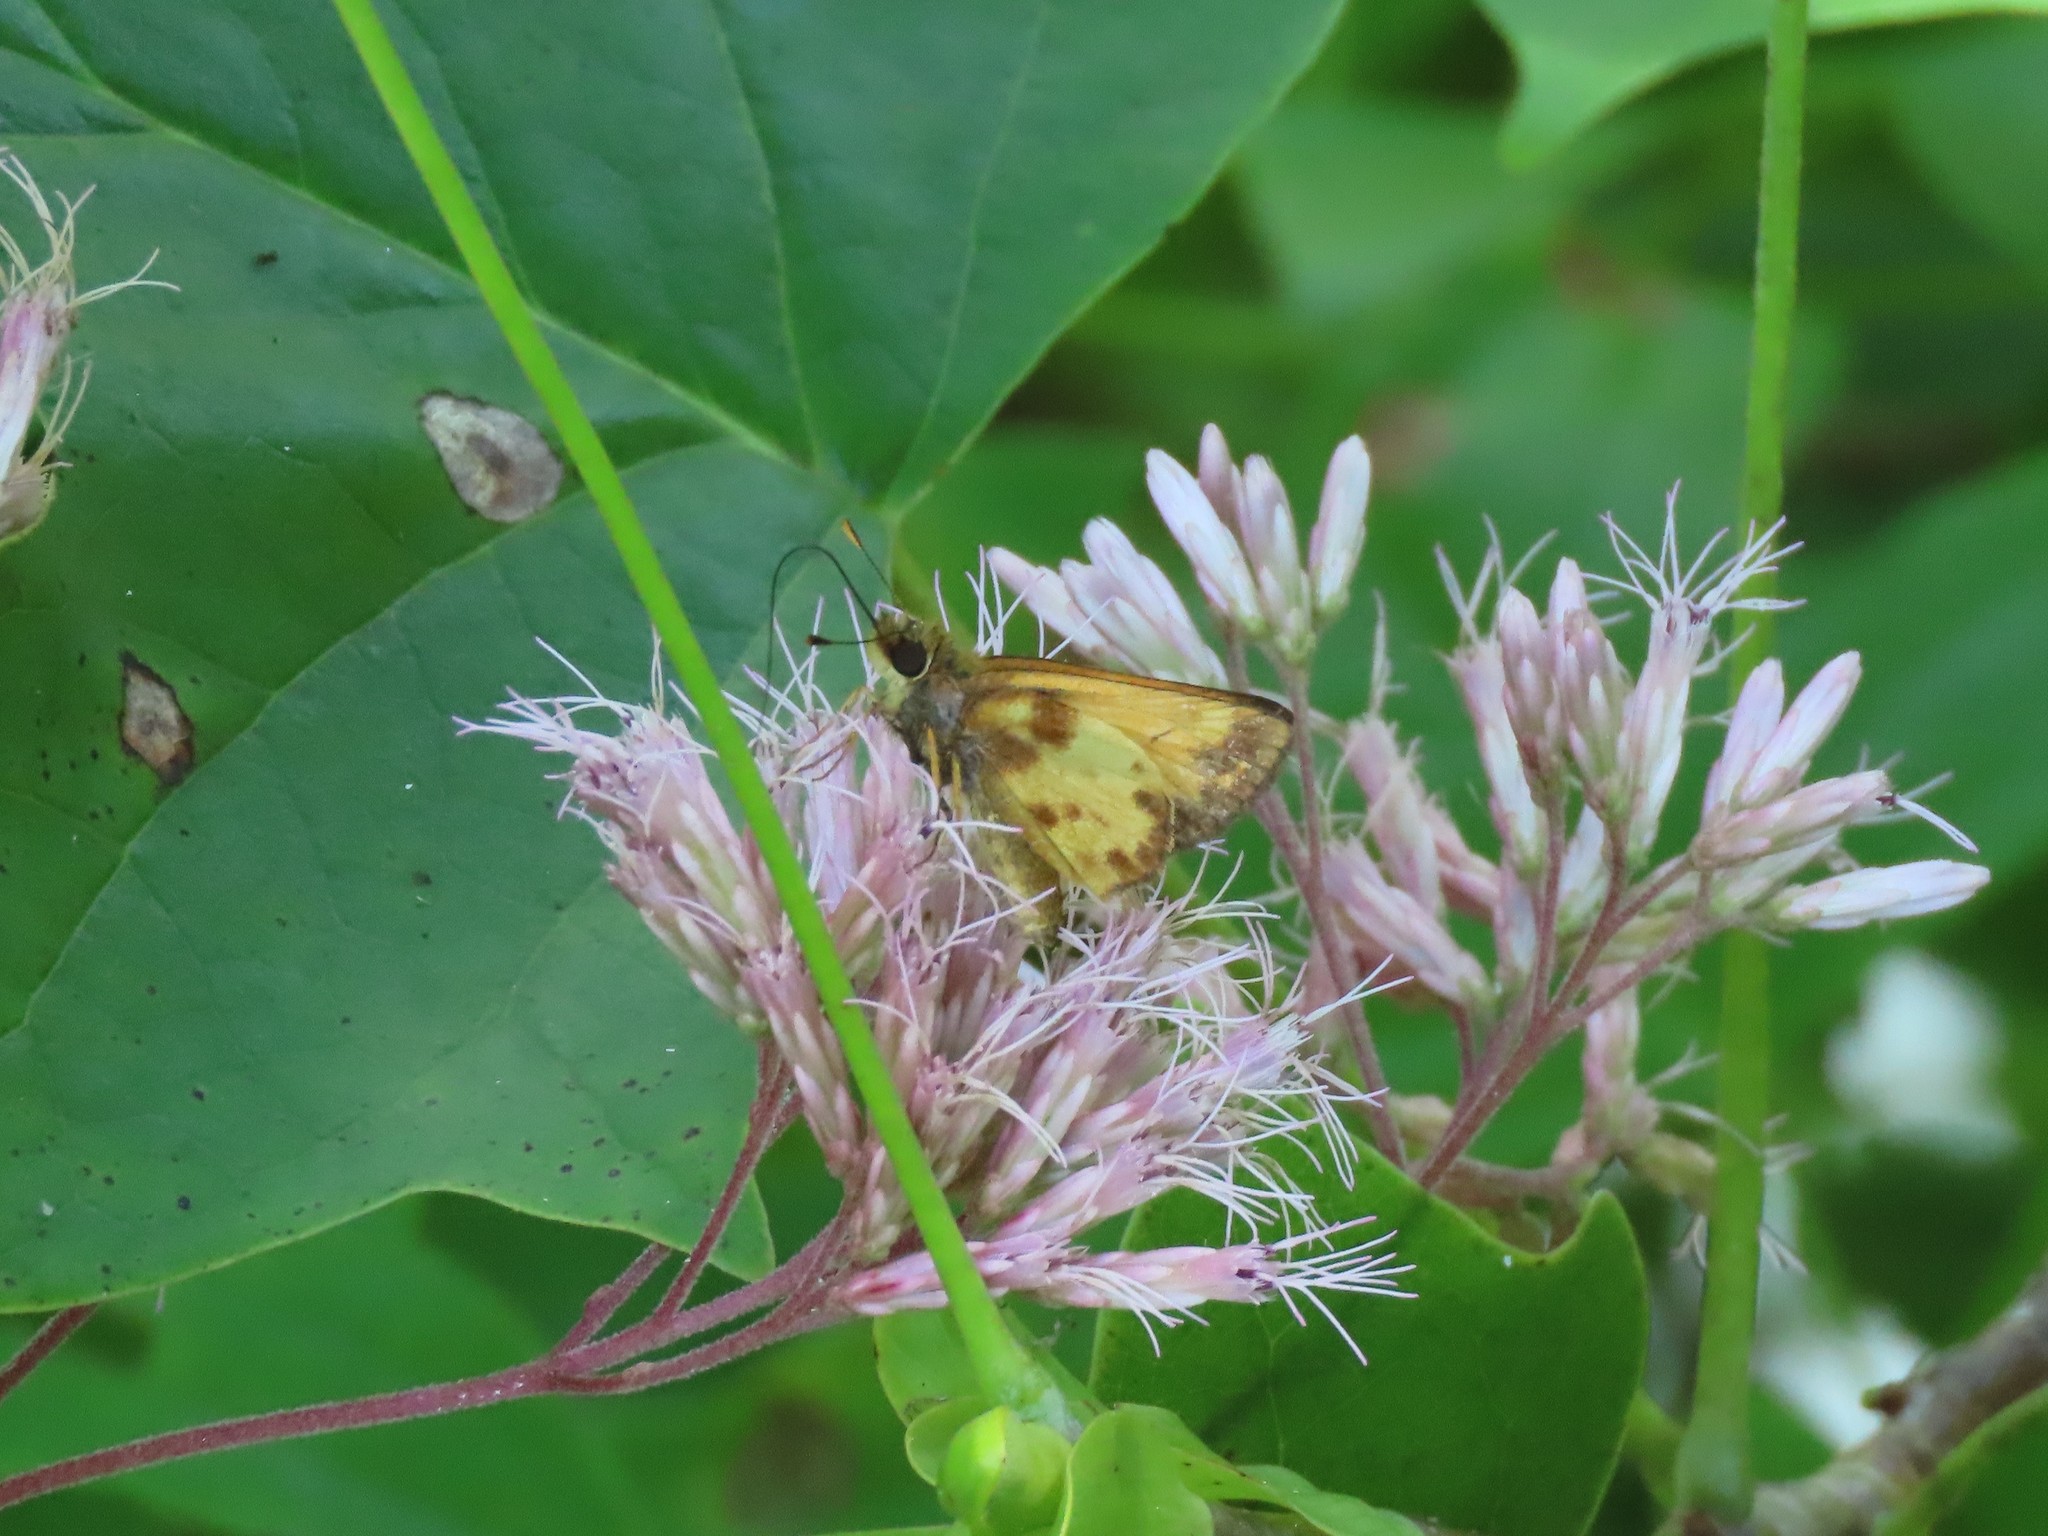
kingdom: Animalia
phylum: Arthropoda
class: Insecta
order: Lepidoptera
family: Hesperiidae
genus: Lon
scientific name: Lon zabulon
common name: Zabulon skipper
